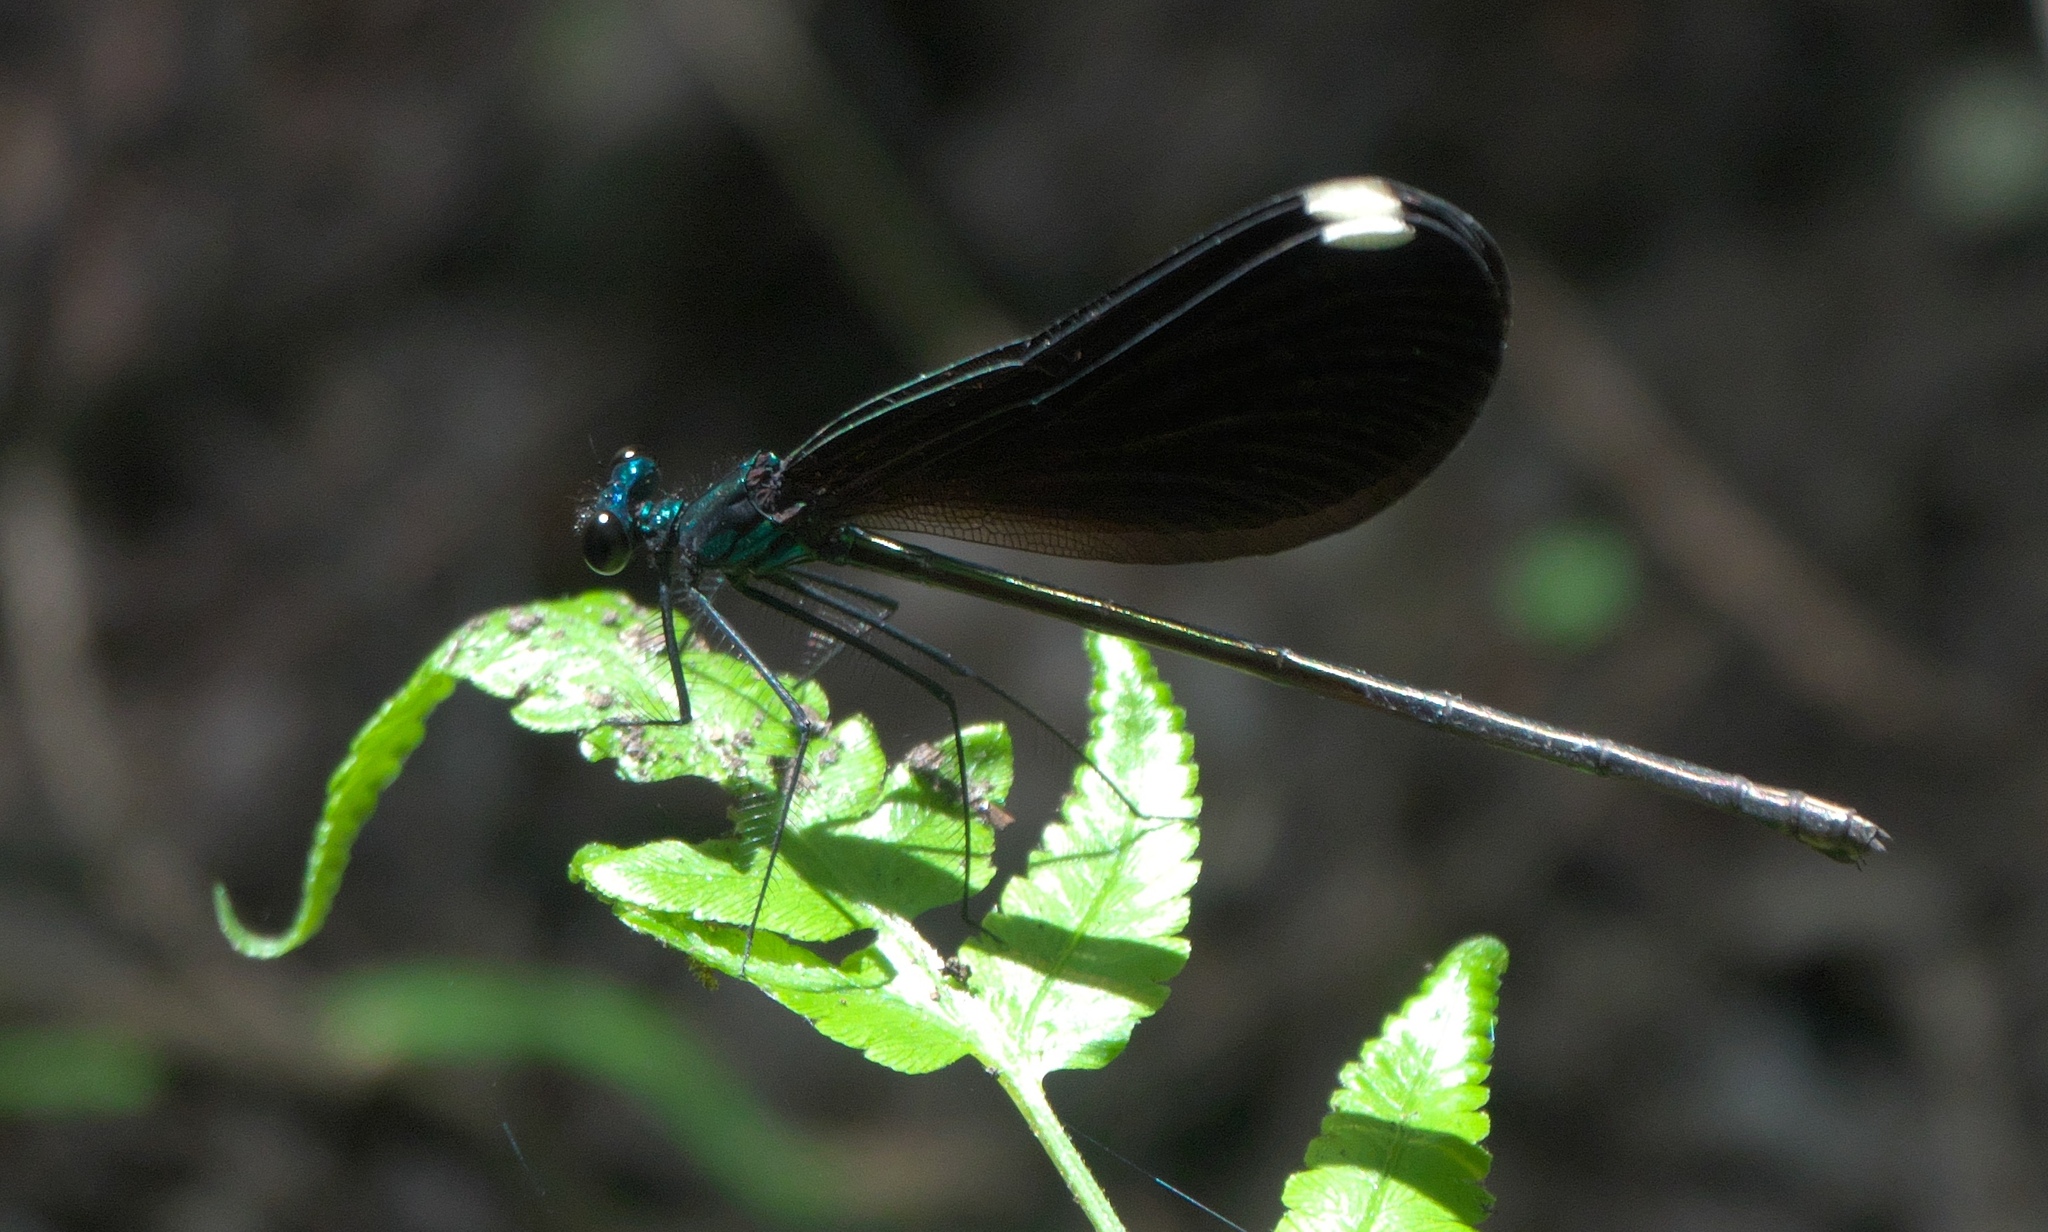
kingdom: Animalia
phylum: Arthropoda
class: Insecta
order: Odonata
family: Calopterygidae
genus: Calopteryx
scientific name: Calopteryx maculata
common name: Ebony jewelwing
